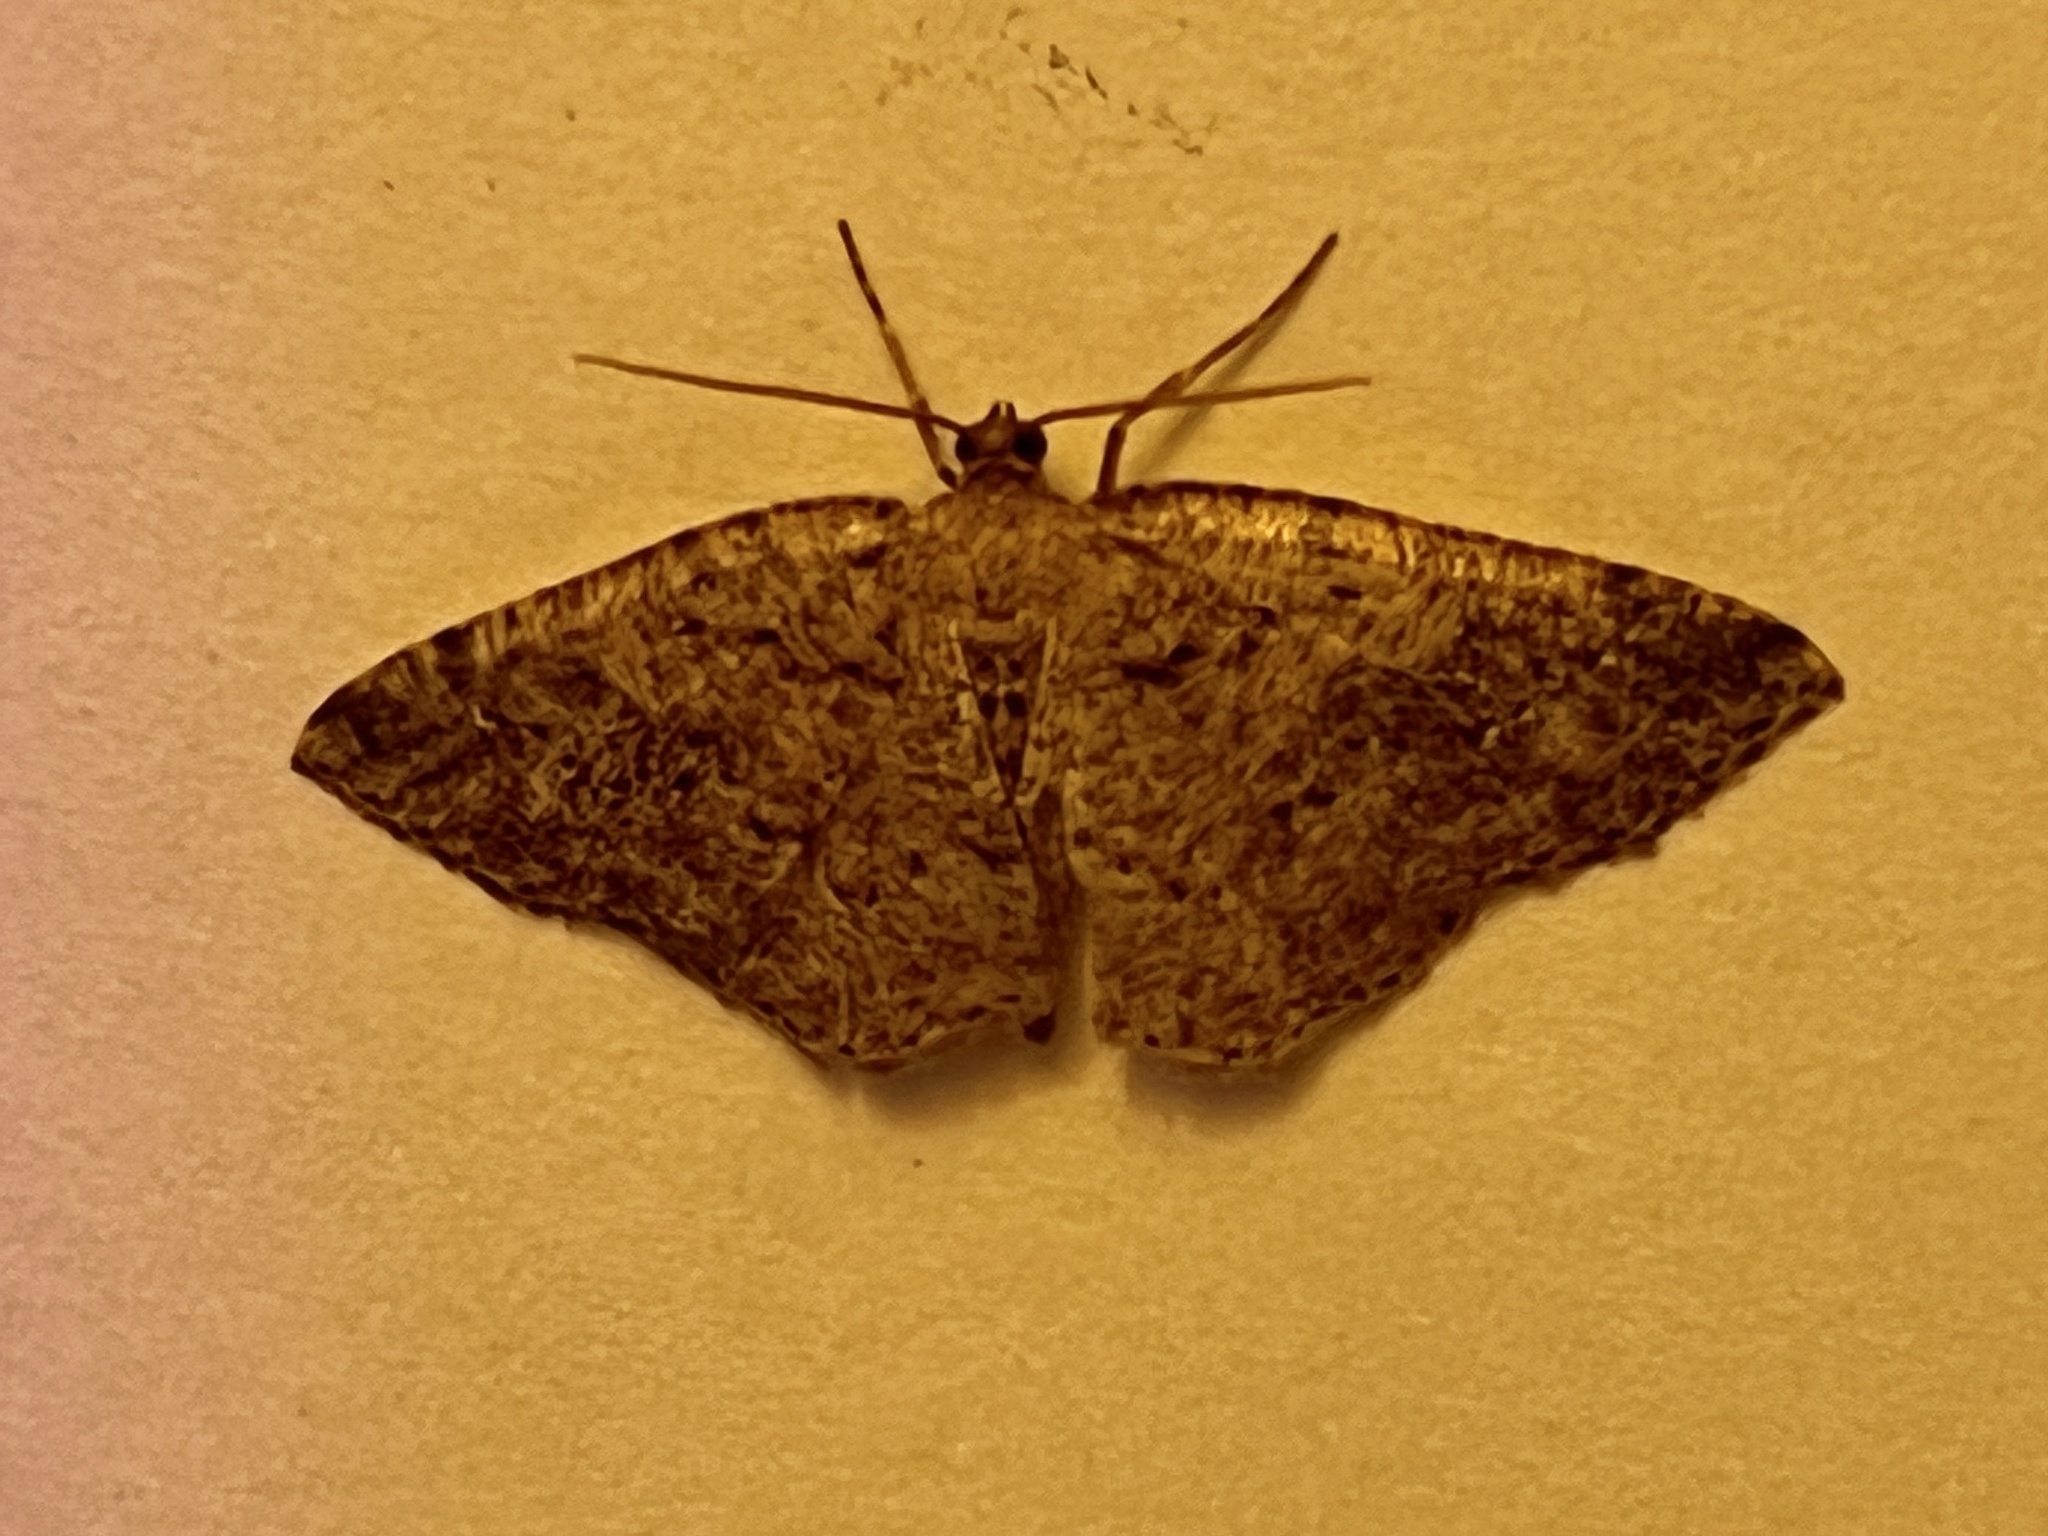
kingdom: Animalia
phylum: Arthropoda
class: Insecta
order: Lepidoptera
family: Geometridae
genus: Homochlodes
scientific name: Homochlodes fritillaria
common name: Pale homochlodes
